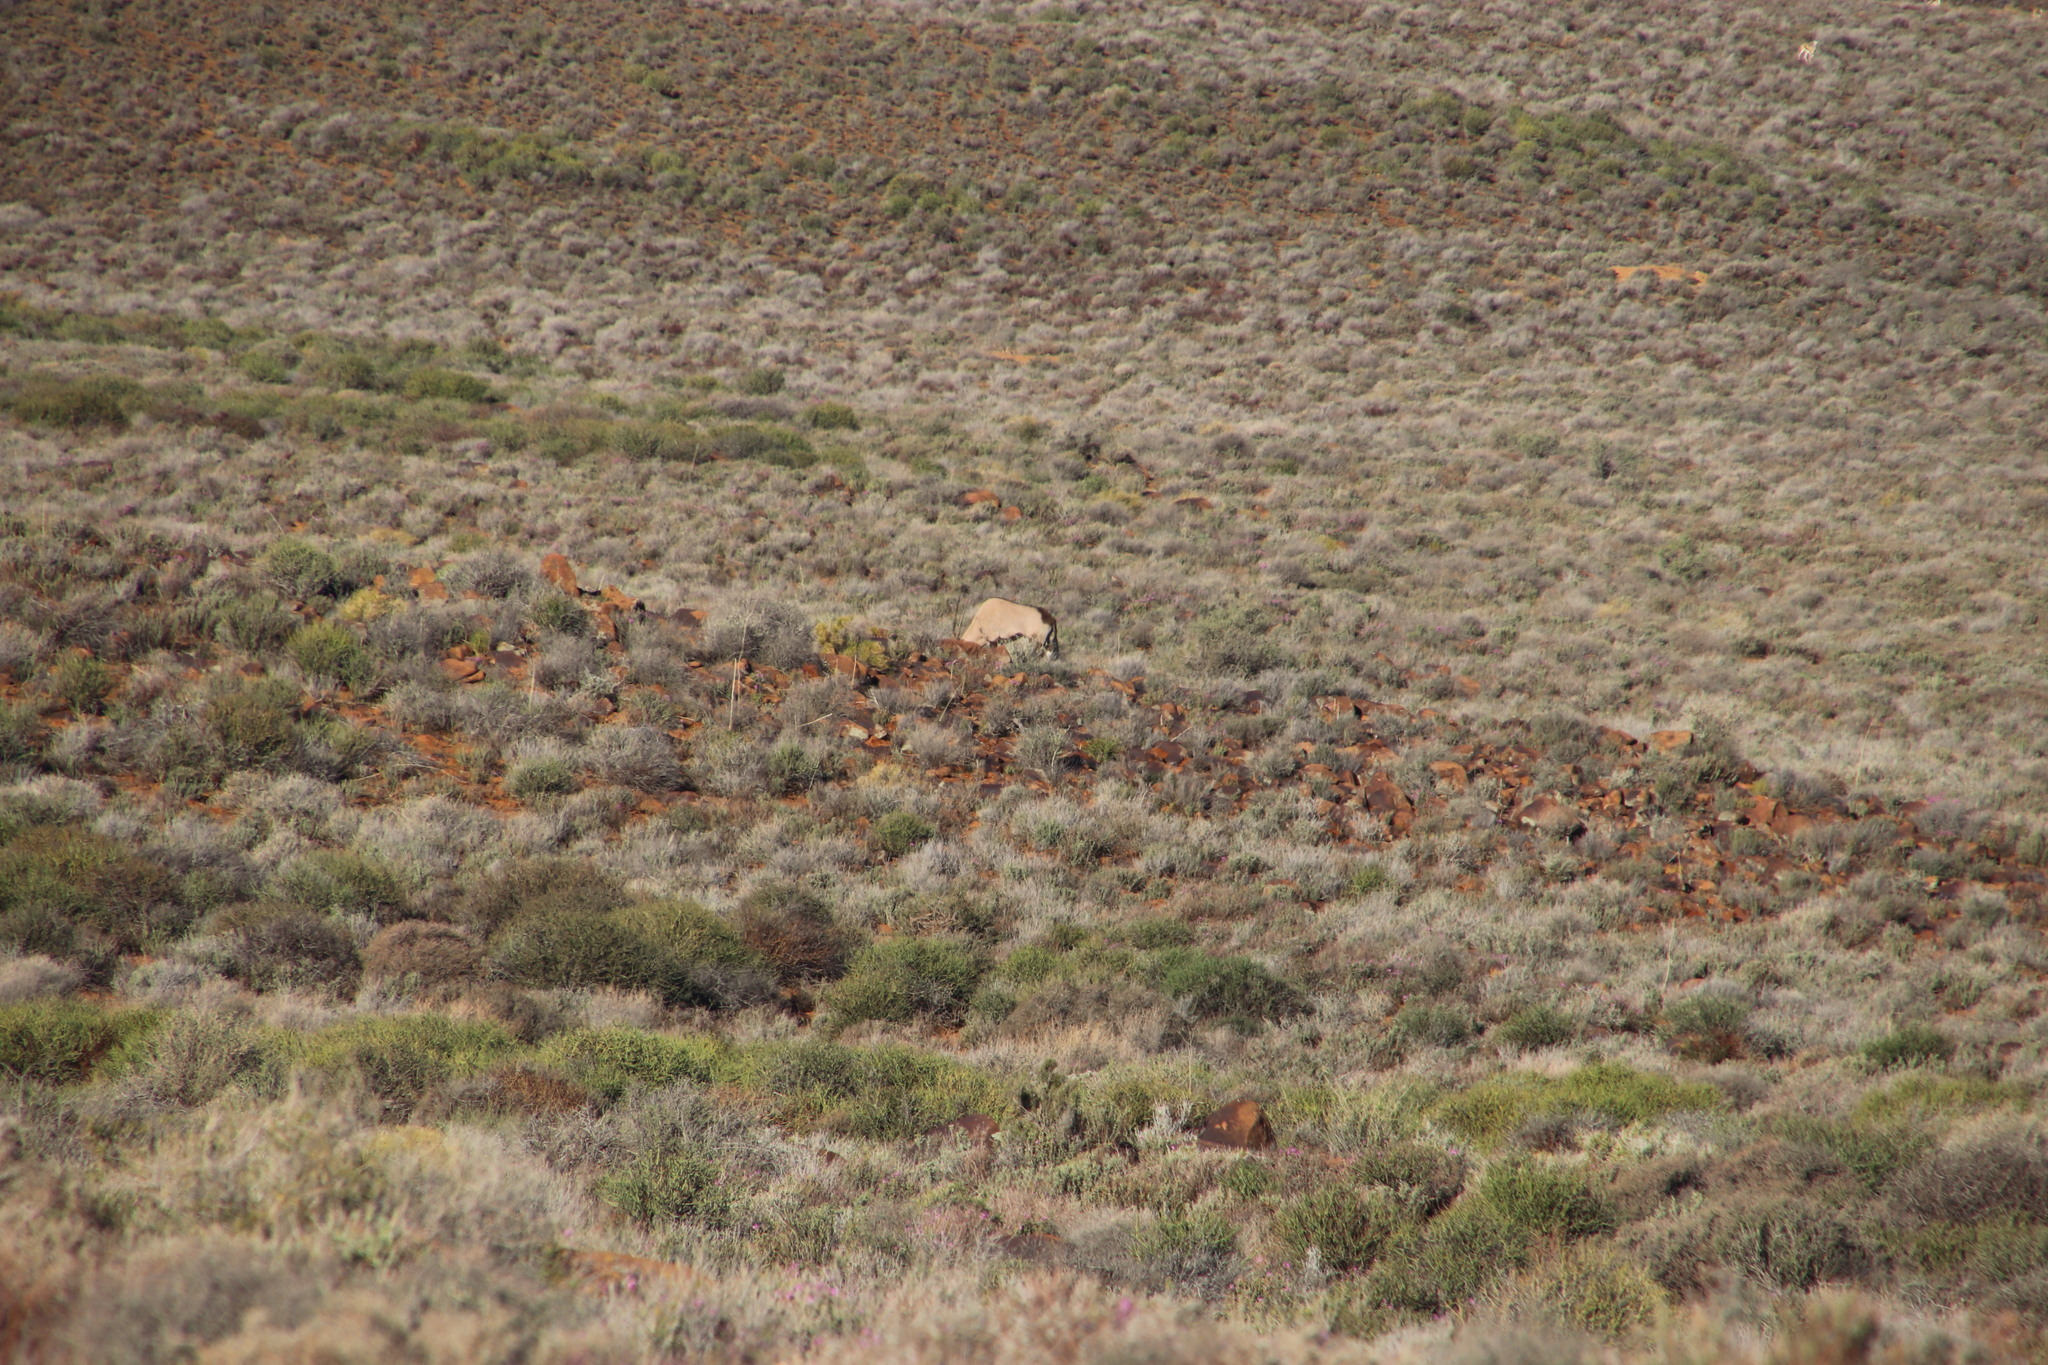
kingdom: Animalia
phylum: Chordata
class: Mammalia
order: Artiodactyla
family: Bovidae
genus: Oryx
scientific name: Oryx gazella
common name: Gemsbok
